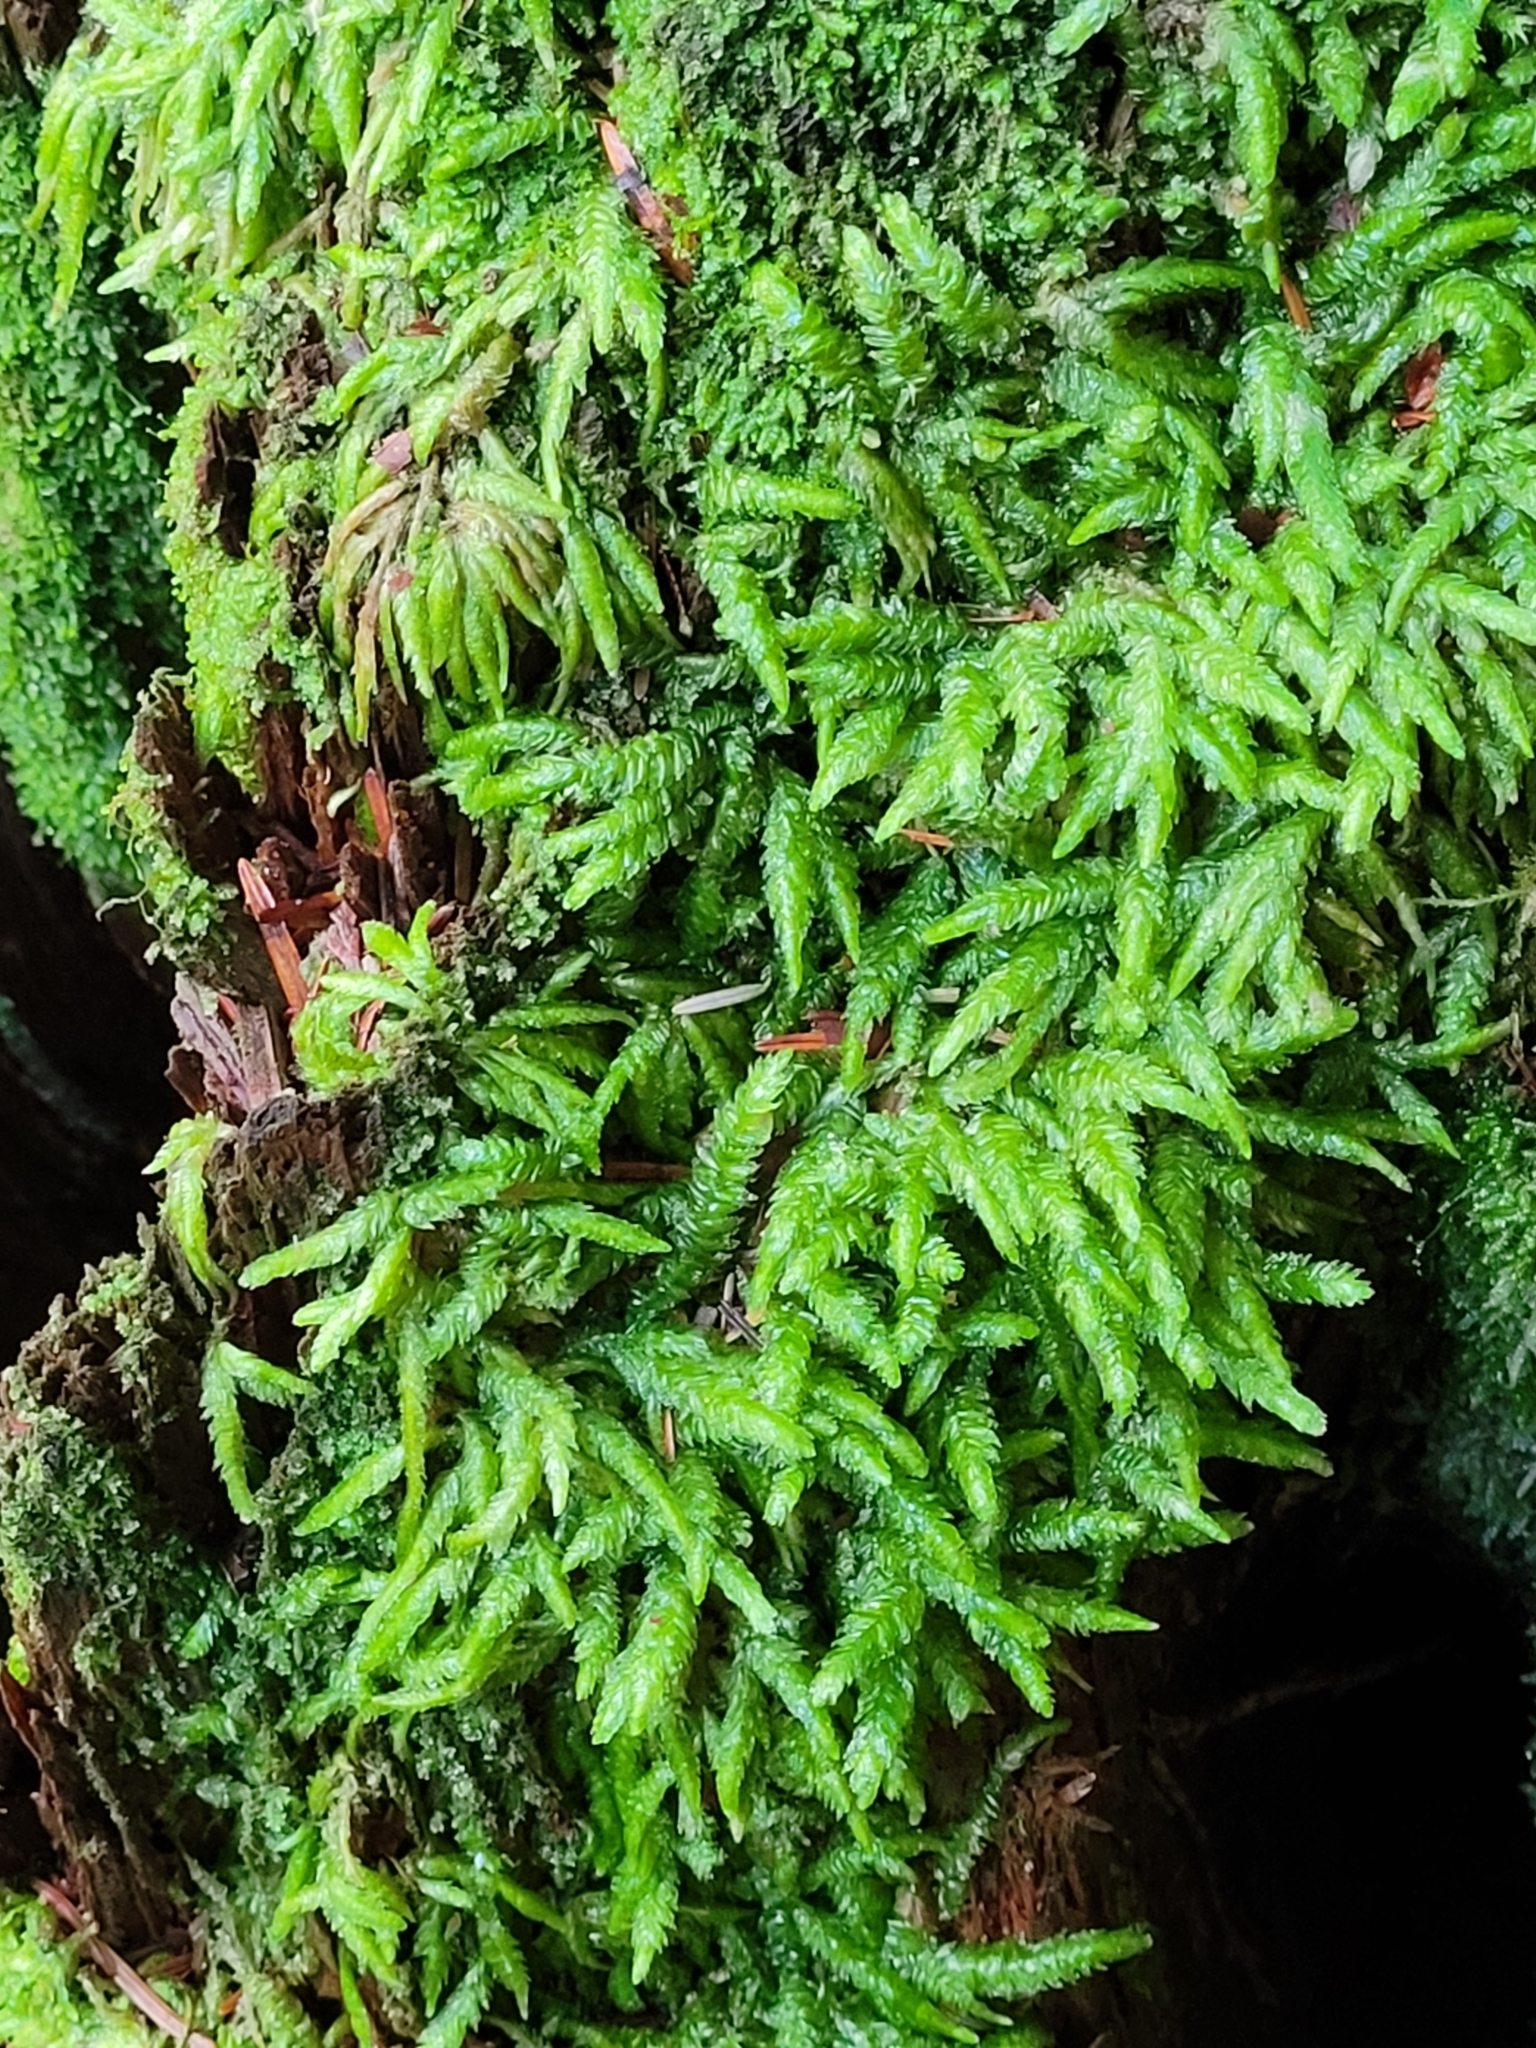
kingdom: Plantae
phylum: Bryophyta
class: Bryopsida
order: Hypnales
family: Plagiotheciaceae
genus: Plagiothecium
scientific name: Plagiothecium undulatum
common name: Waved silk-moss
